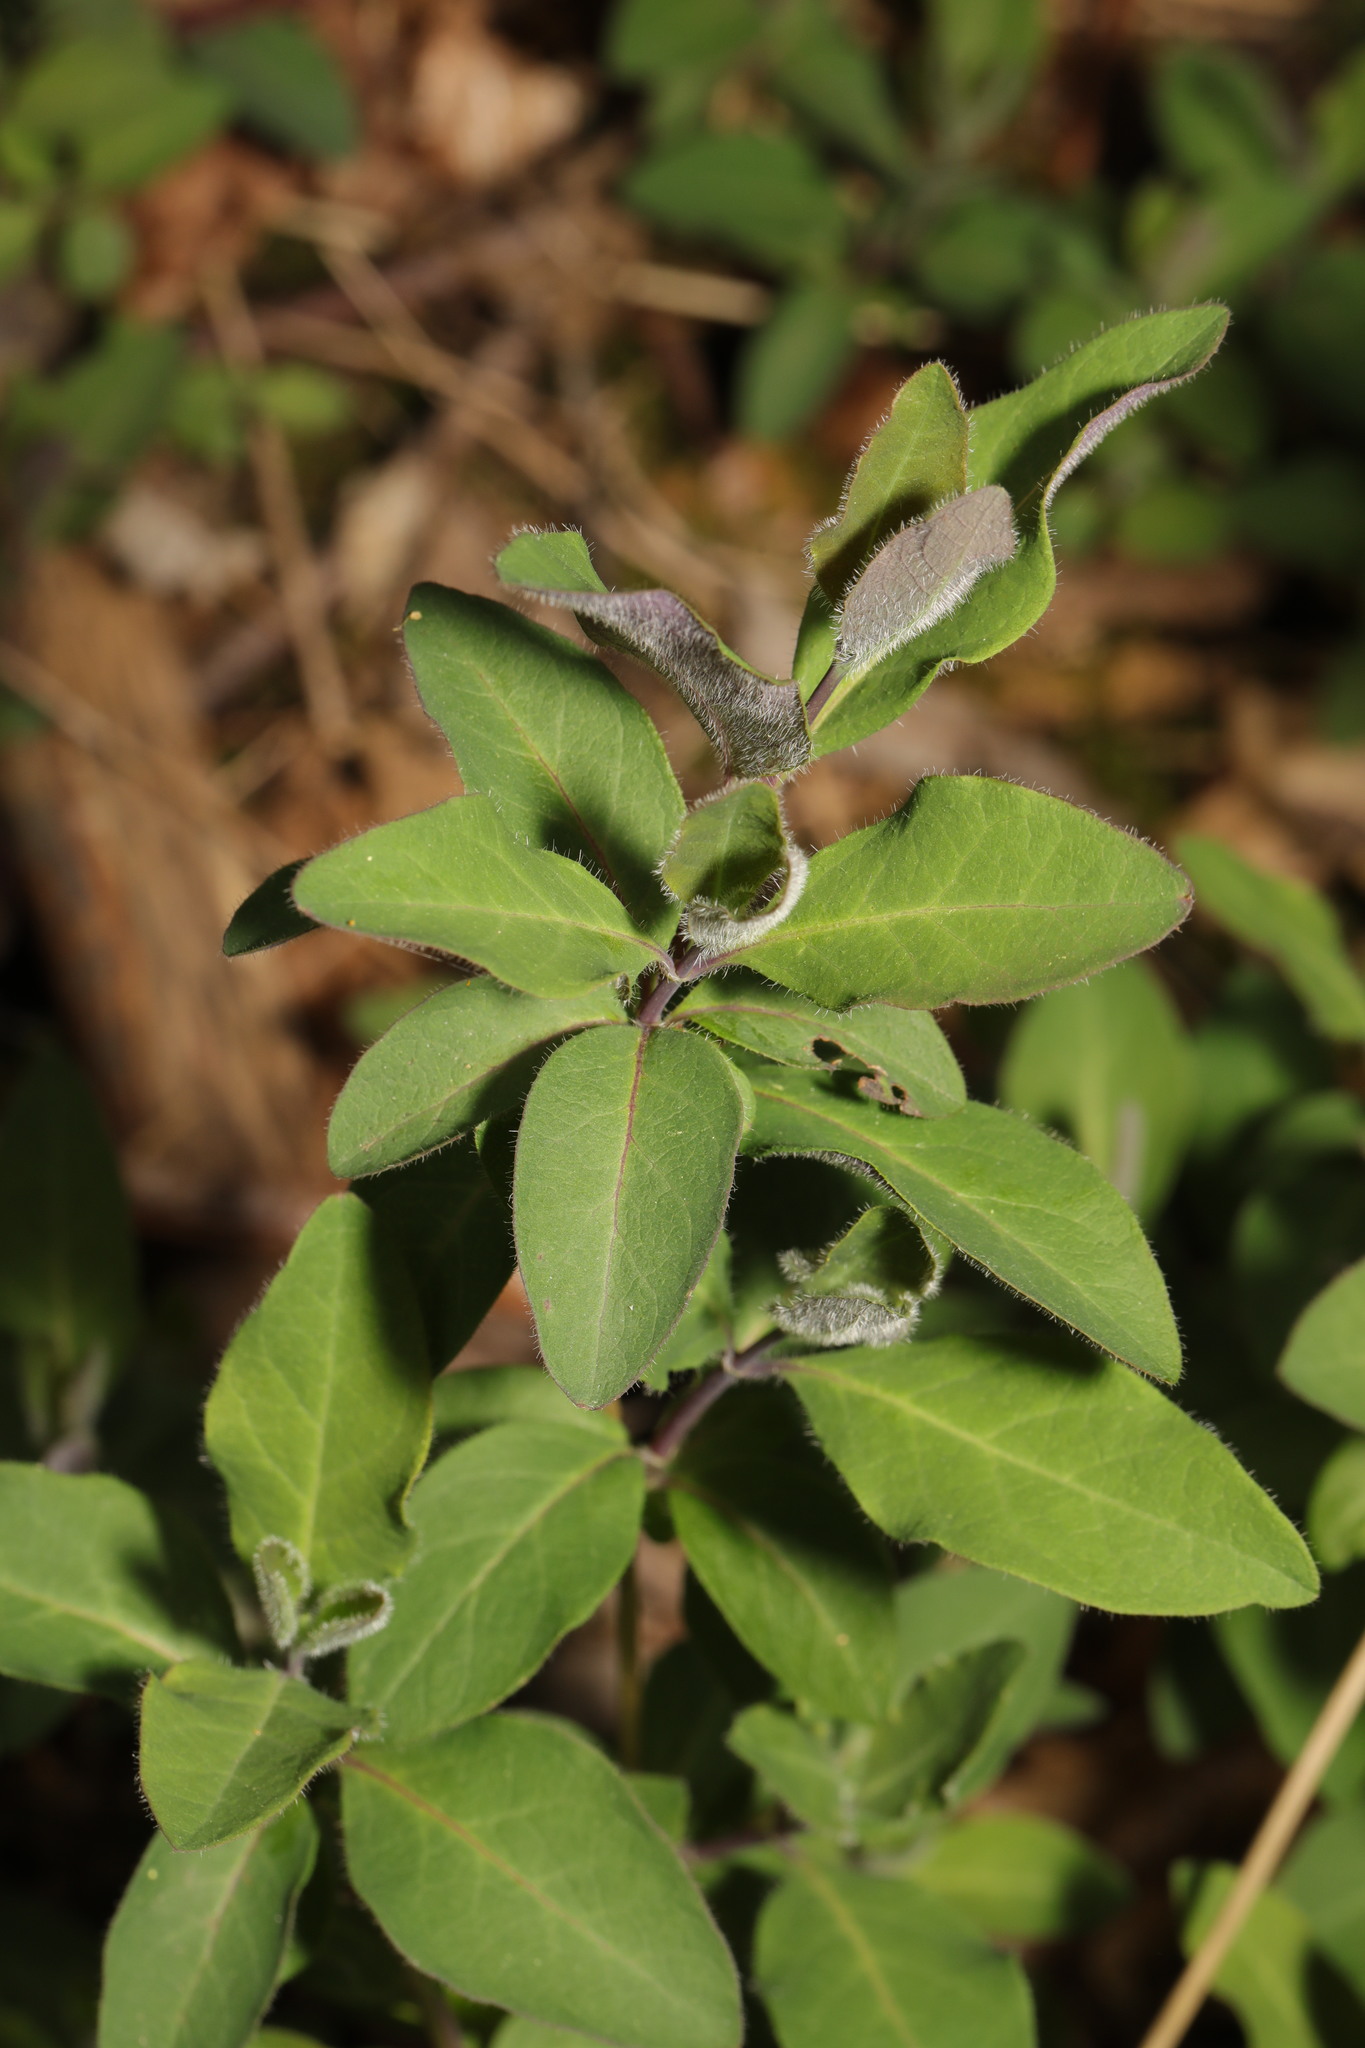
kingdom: Plantae
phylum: Tracheophyta
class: Magnoliopsida
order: Dipsacales
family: Caprifoliaceae
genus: Lonicera
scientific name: Lonicera periclymenum
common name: European honeysuckle
